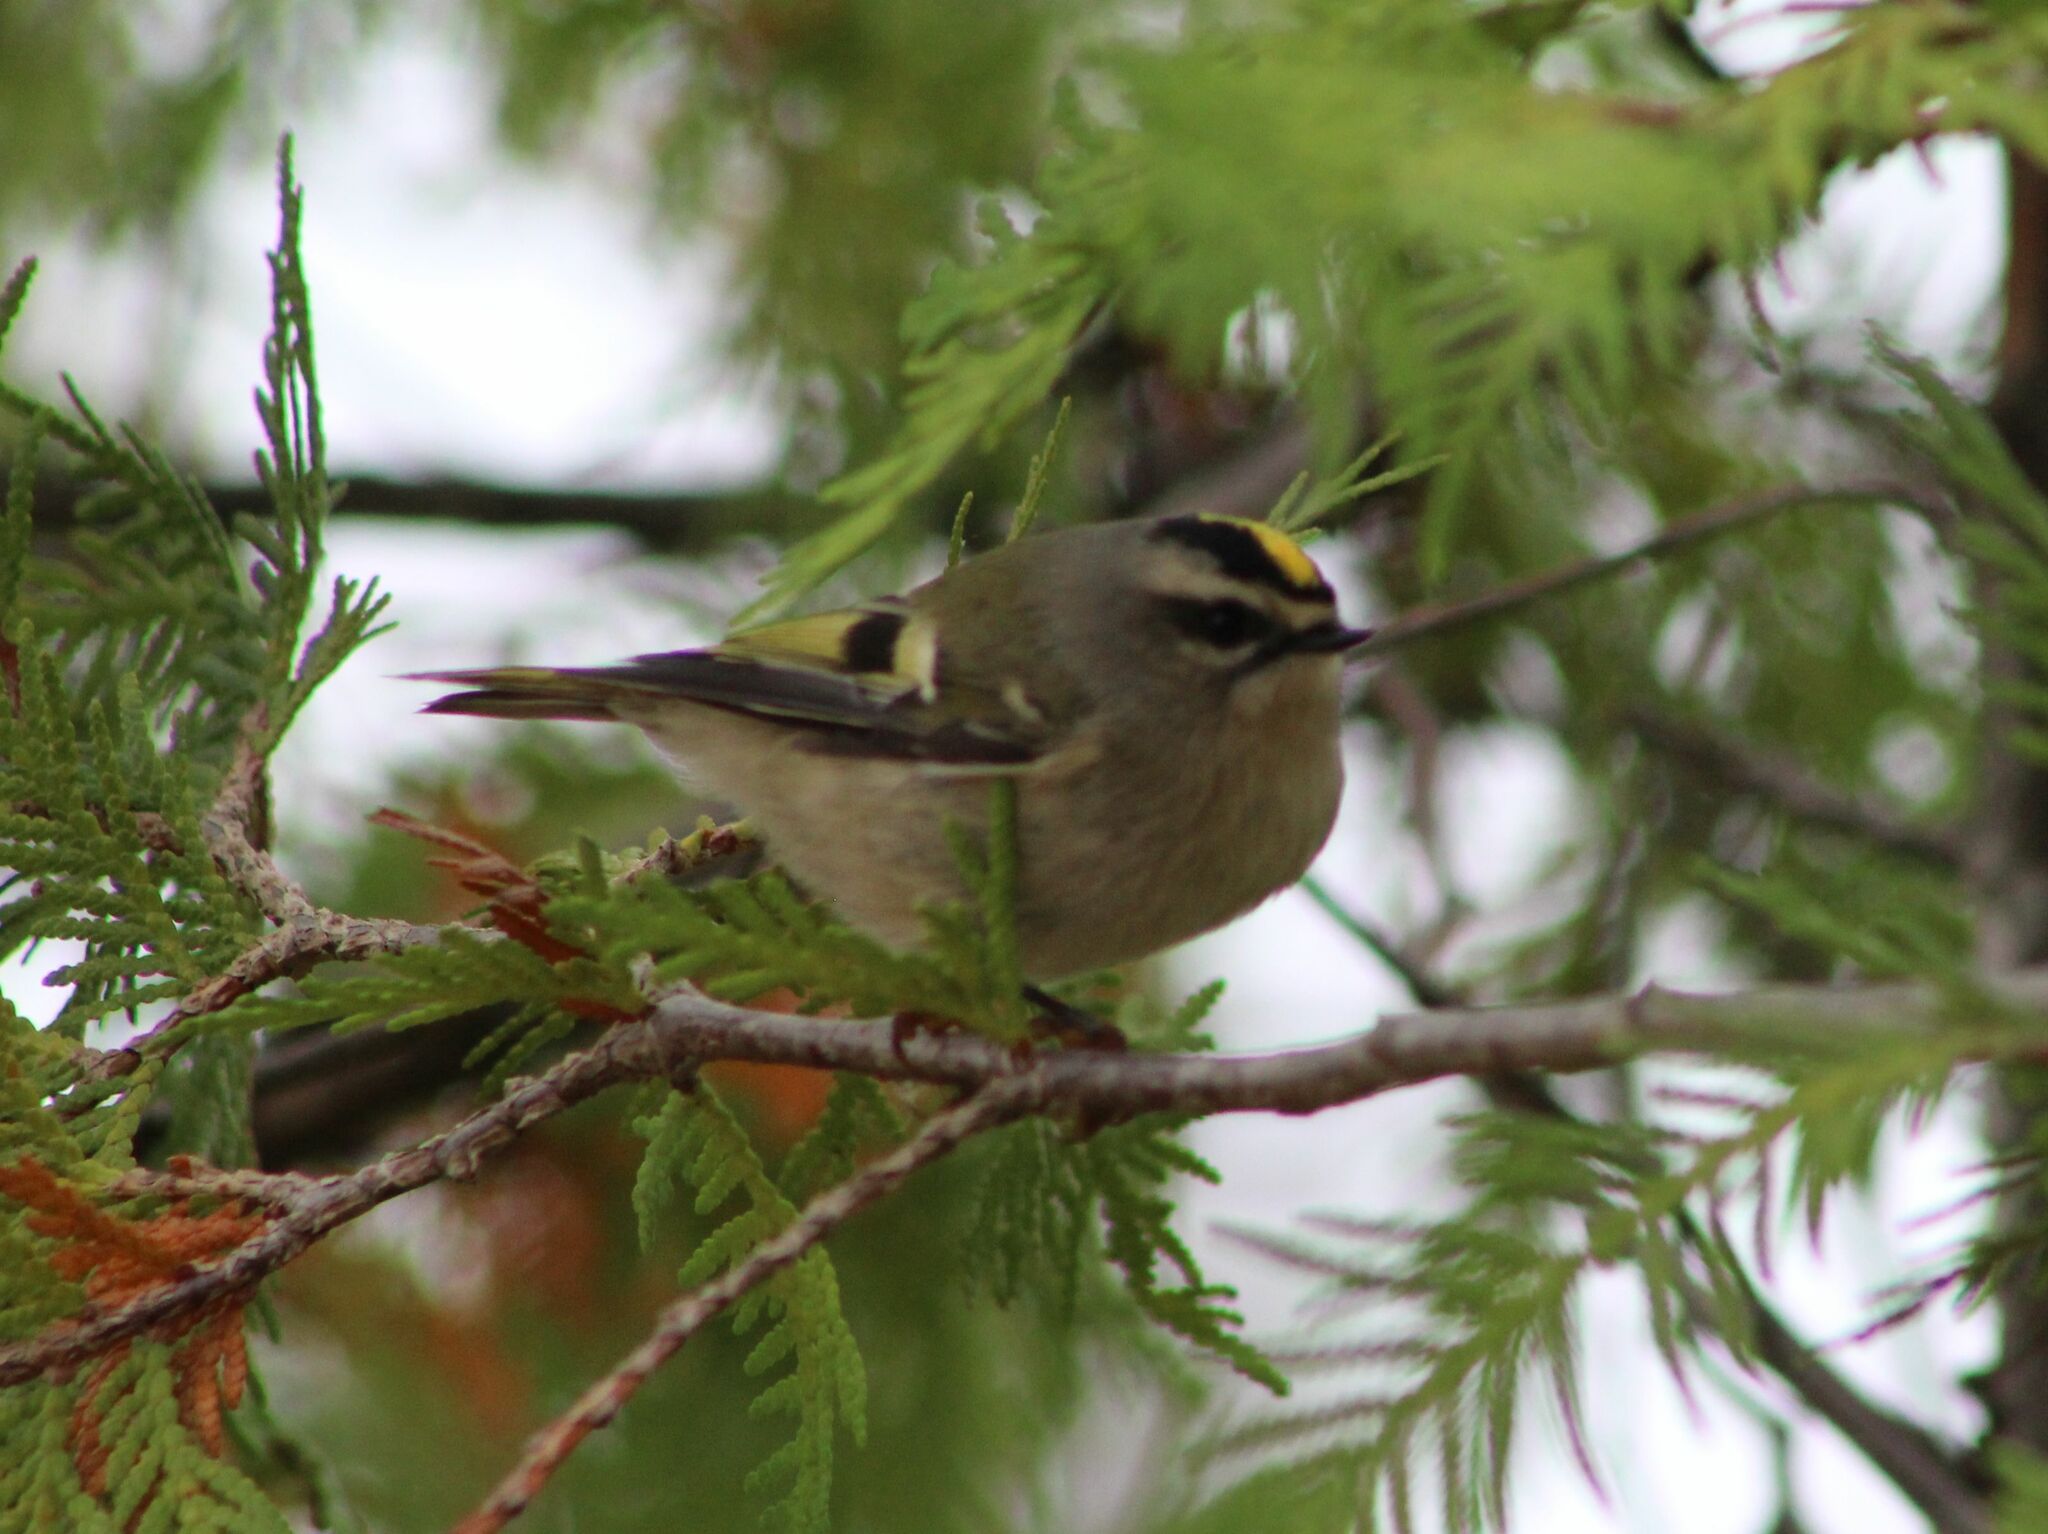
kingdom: Animalia
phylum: Chordata
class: Aves
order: Passeriformes
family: Regulidae
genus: Regulus
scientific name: Regulus satrapa
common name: Golden-crowned kinglet
